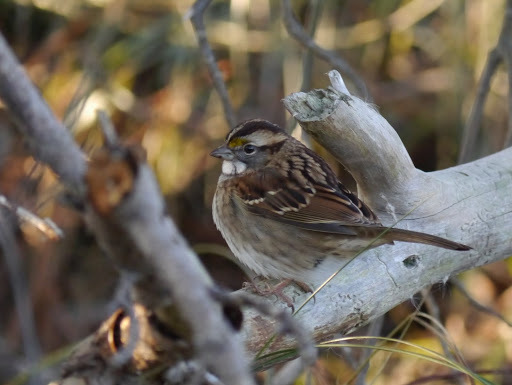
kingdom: Animalia
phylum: Chordata
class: Aves
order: Passeriformes
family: Passerellidae
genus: Zonotrichia
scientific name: Zonotrichia albicollis
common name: White-throated sparrow
